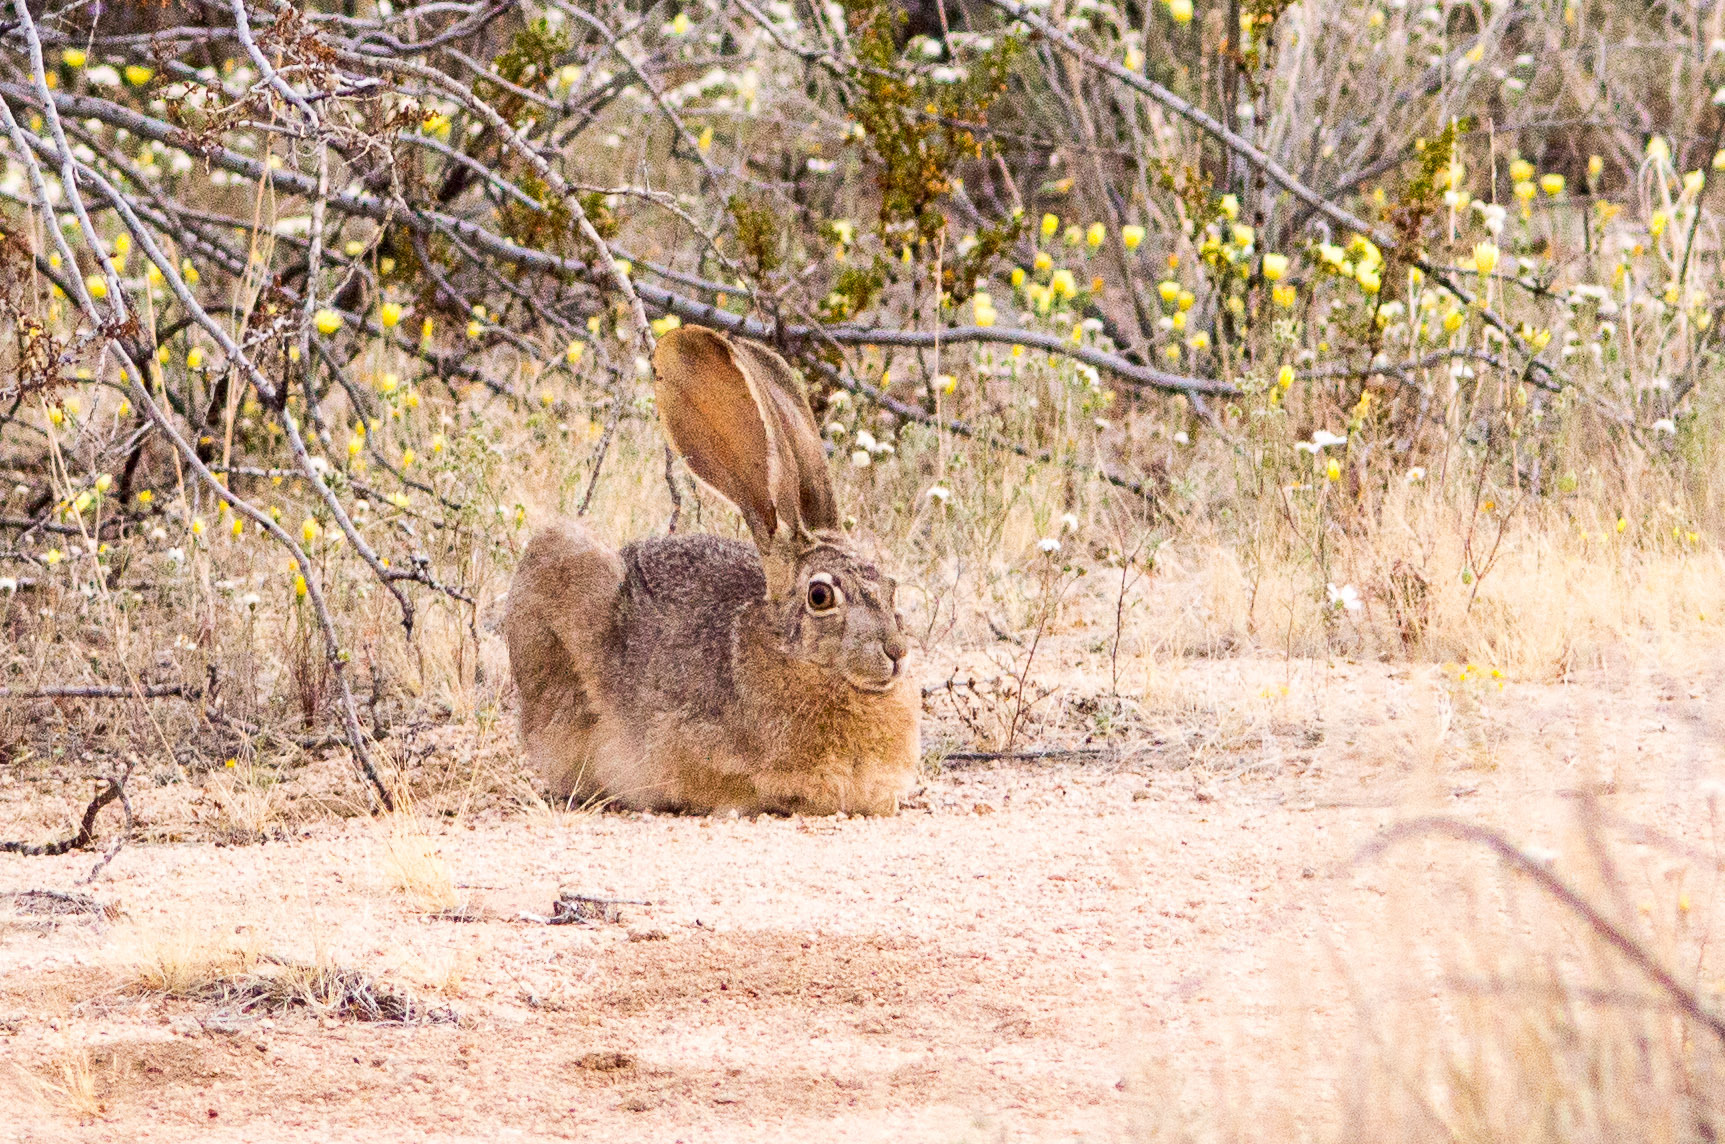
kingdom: Animalia
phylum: Chordata
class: Mammalia
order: Lagomorpha
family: Leporidae
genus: Lepus
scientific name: Lepus californicus
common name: Black-tailed jackrabbit
